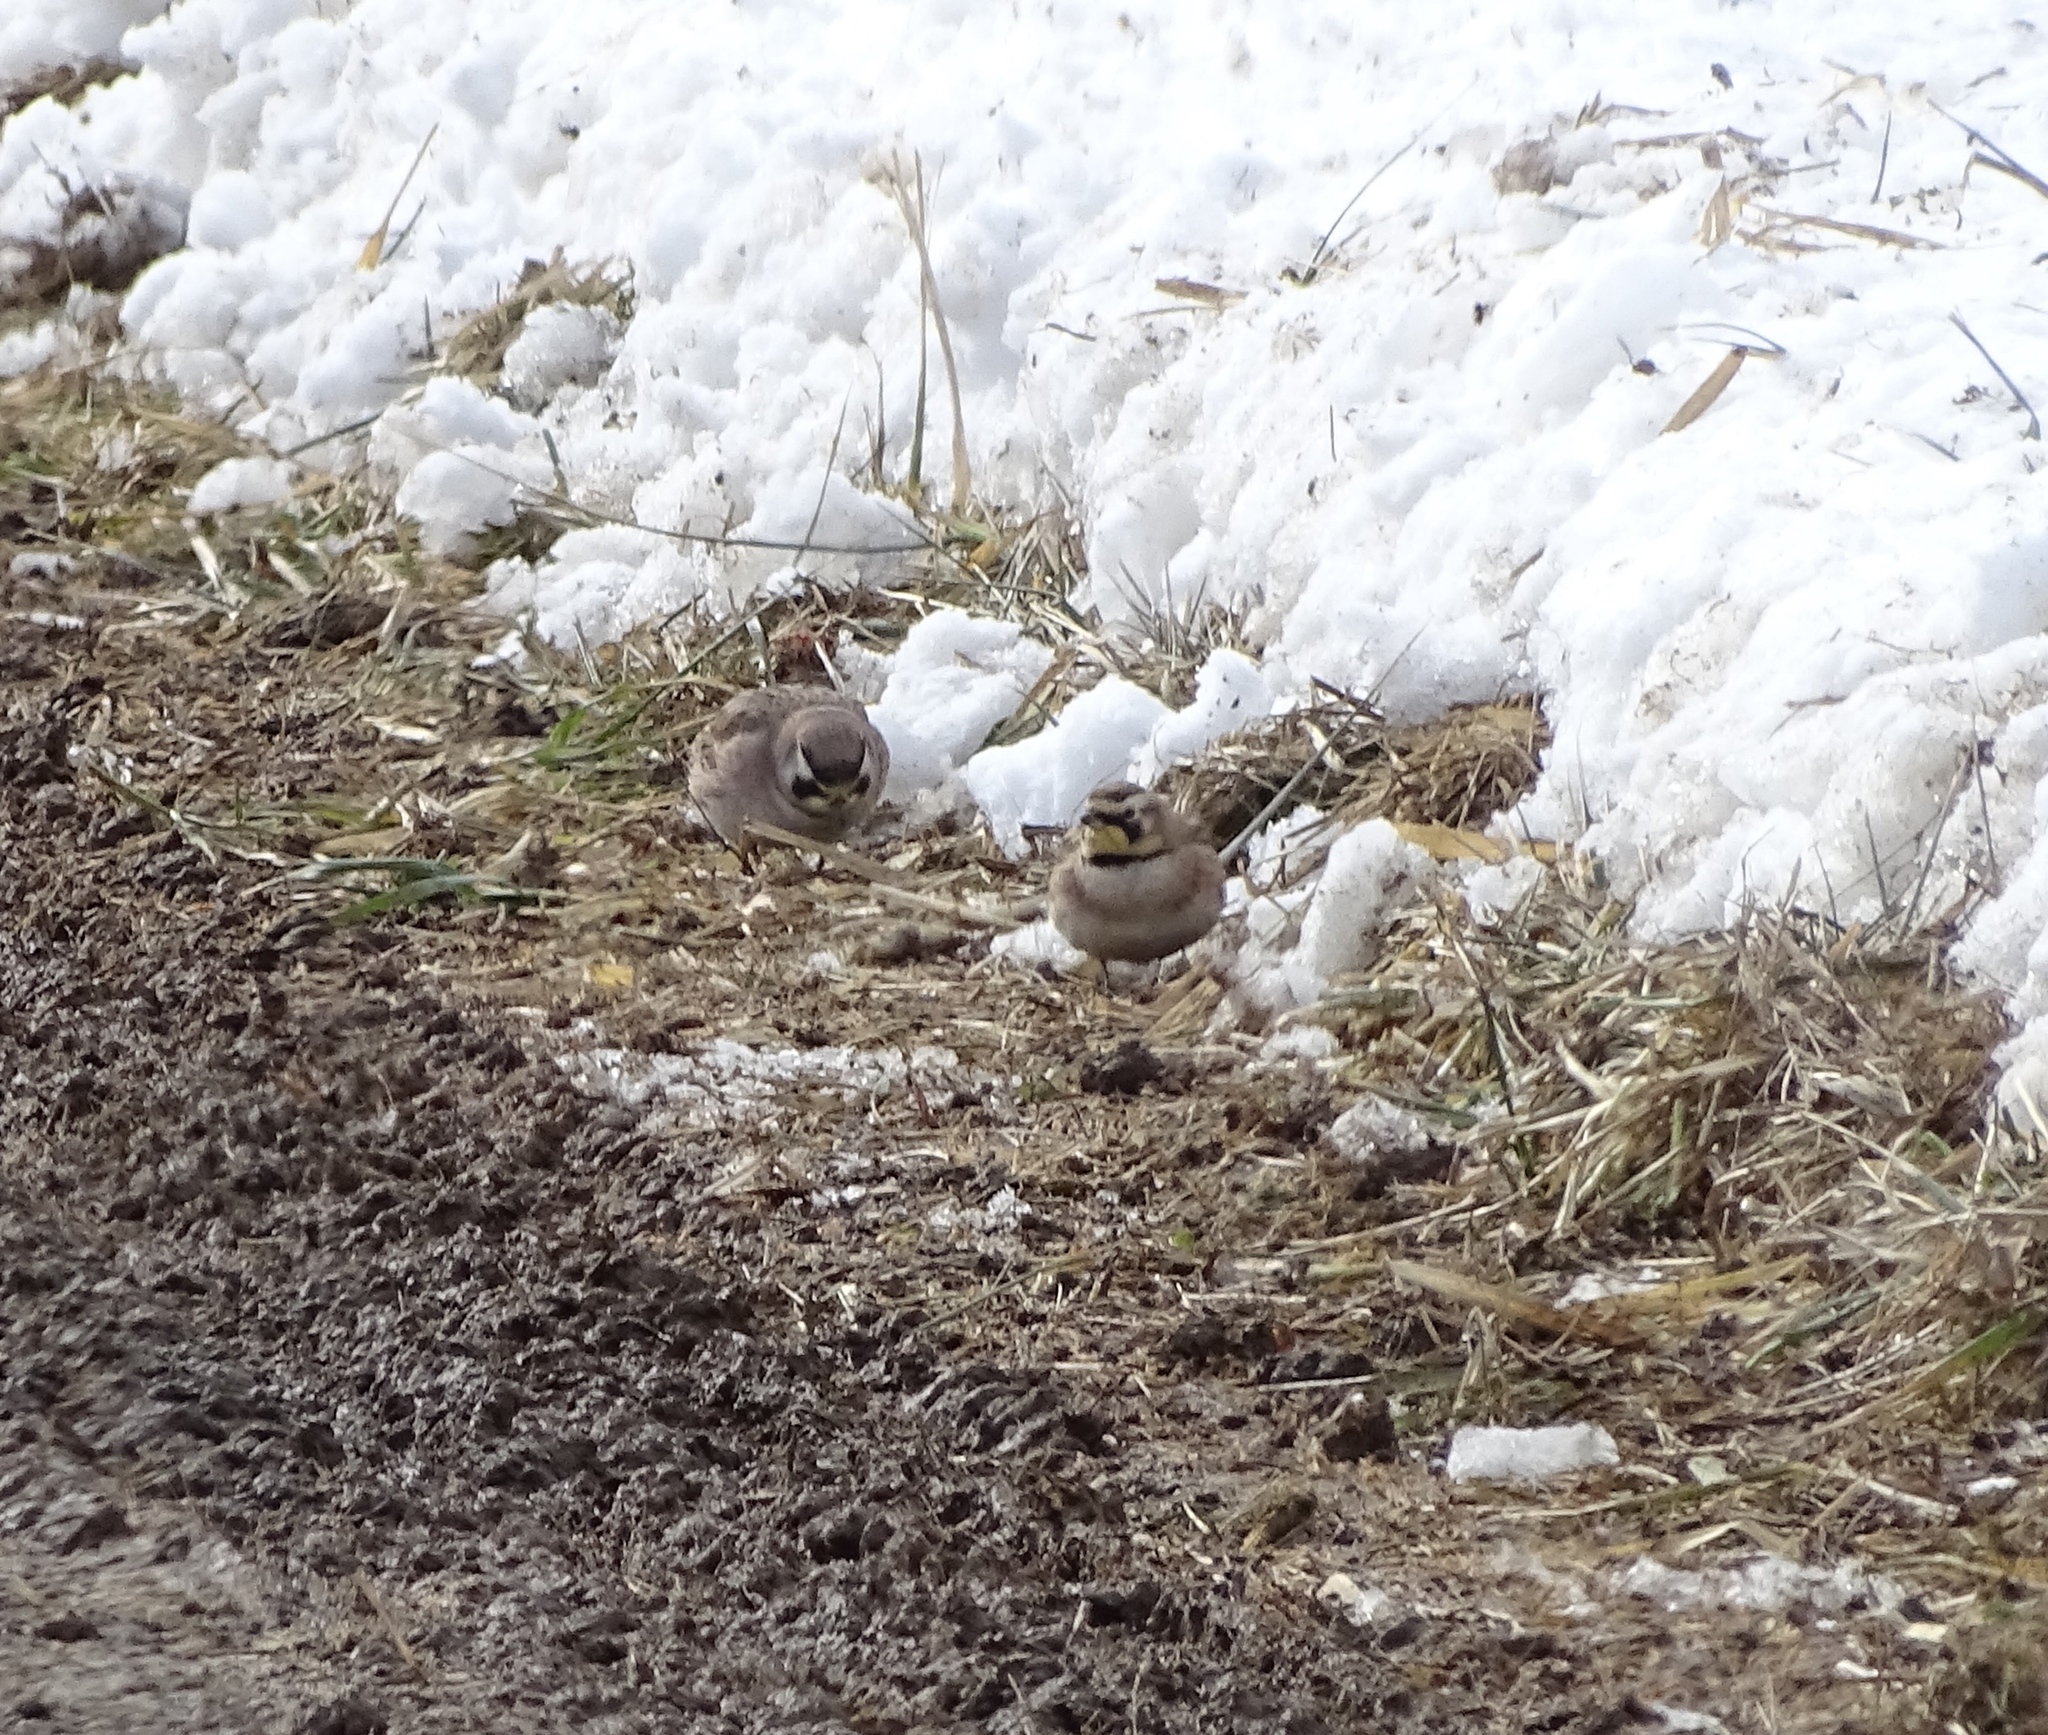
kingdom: Animalia
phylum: Chordata
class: Aves
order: Passeriformes
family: Alaudidae
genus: Eremophila
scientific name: Eremophila alpestris
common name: Horned lark
